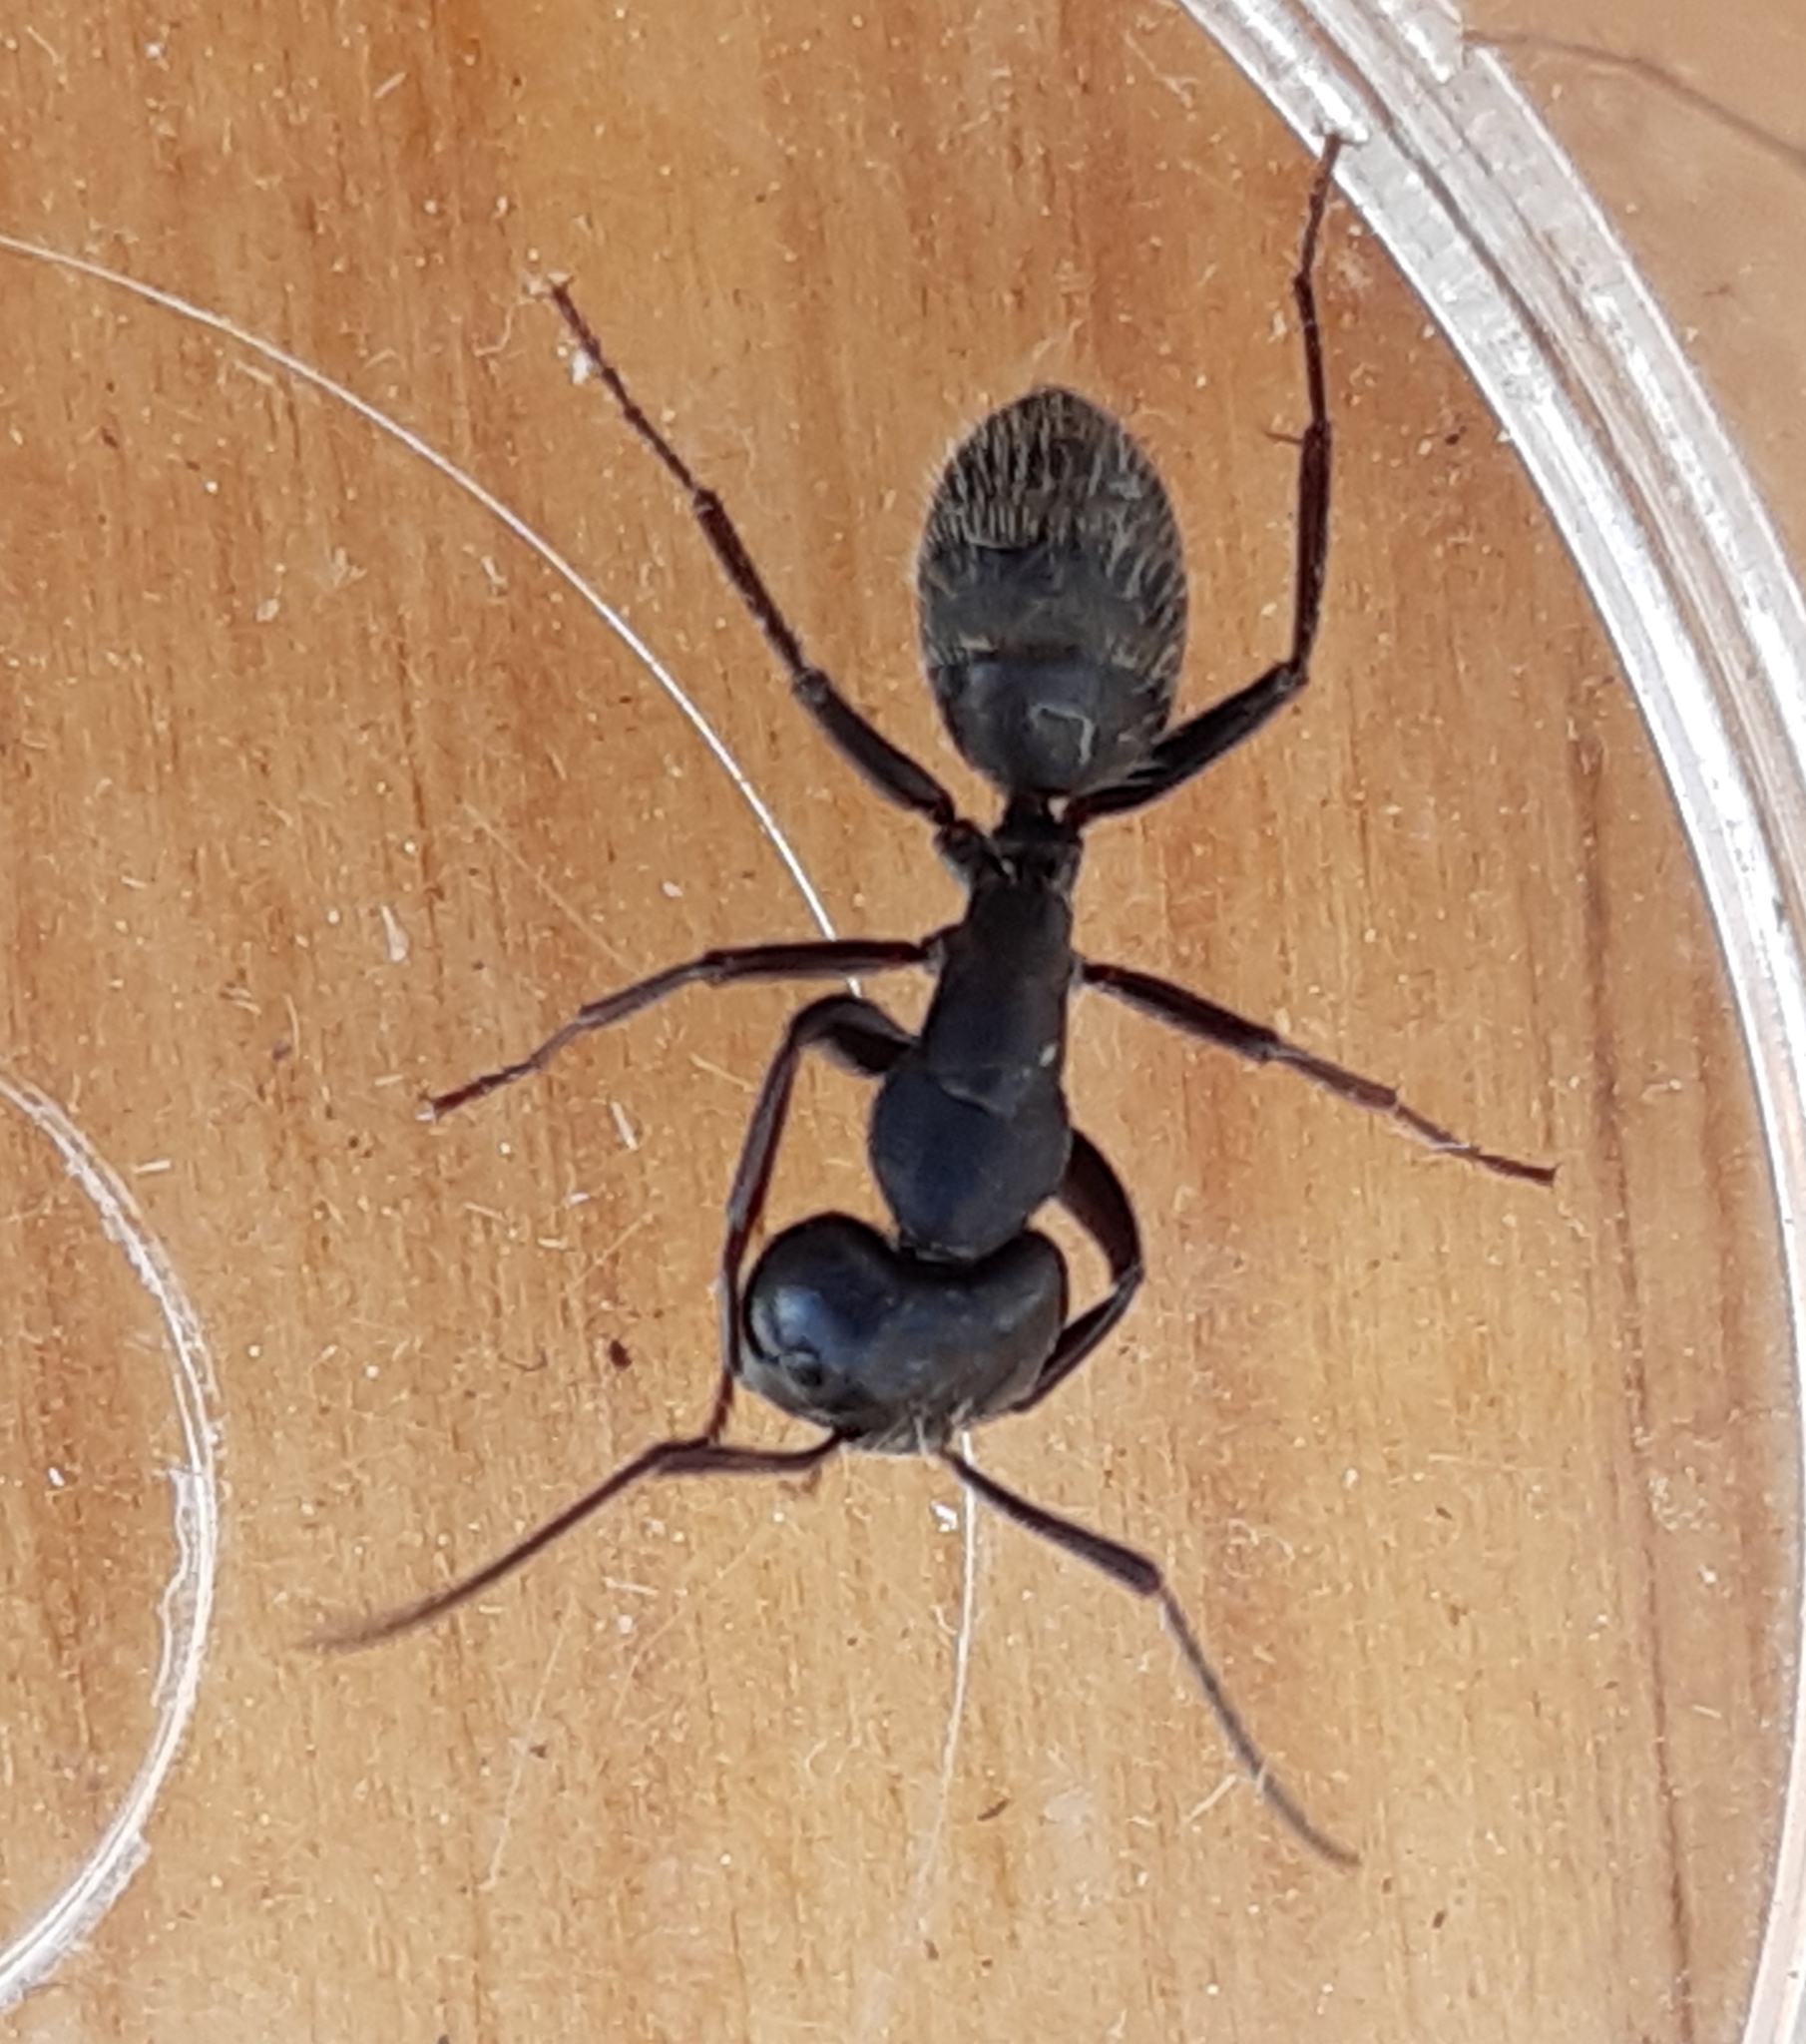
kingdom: Animalia
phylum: Arthropoda
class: Insecta
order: Hymenoptera
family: Formicidae
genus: Camponotus
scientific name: Camponotus vagus
